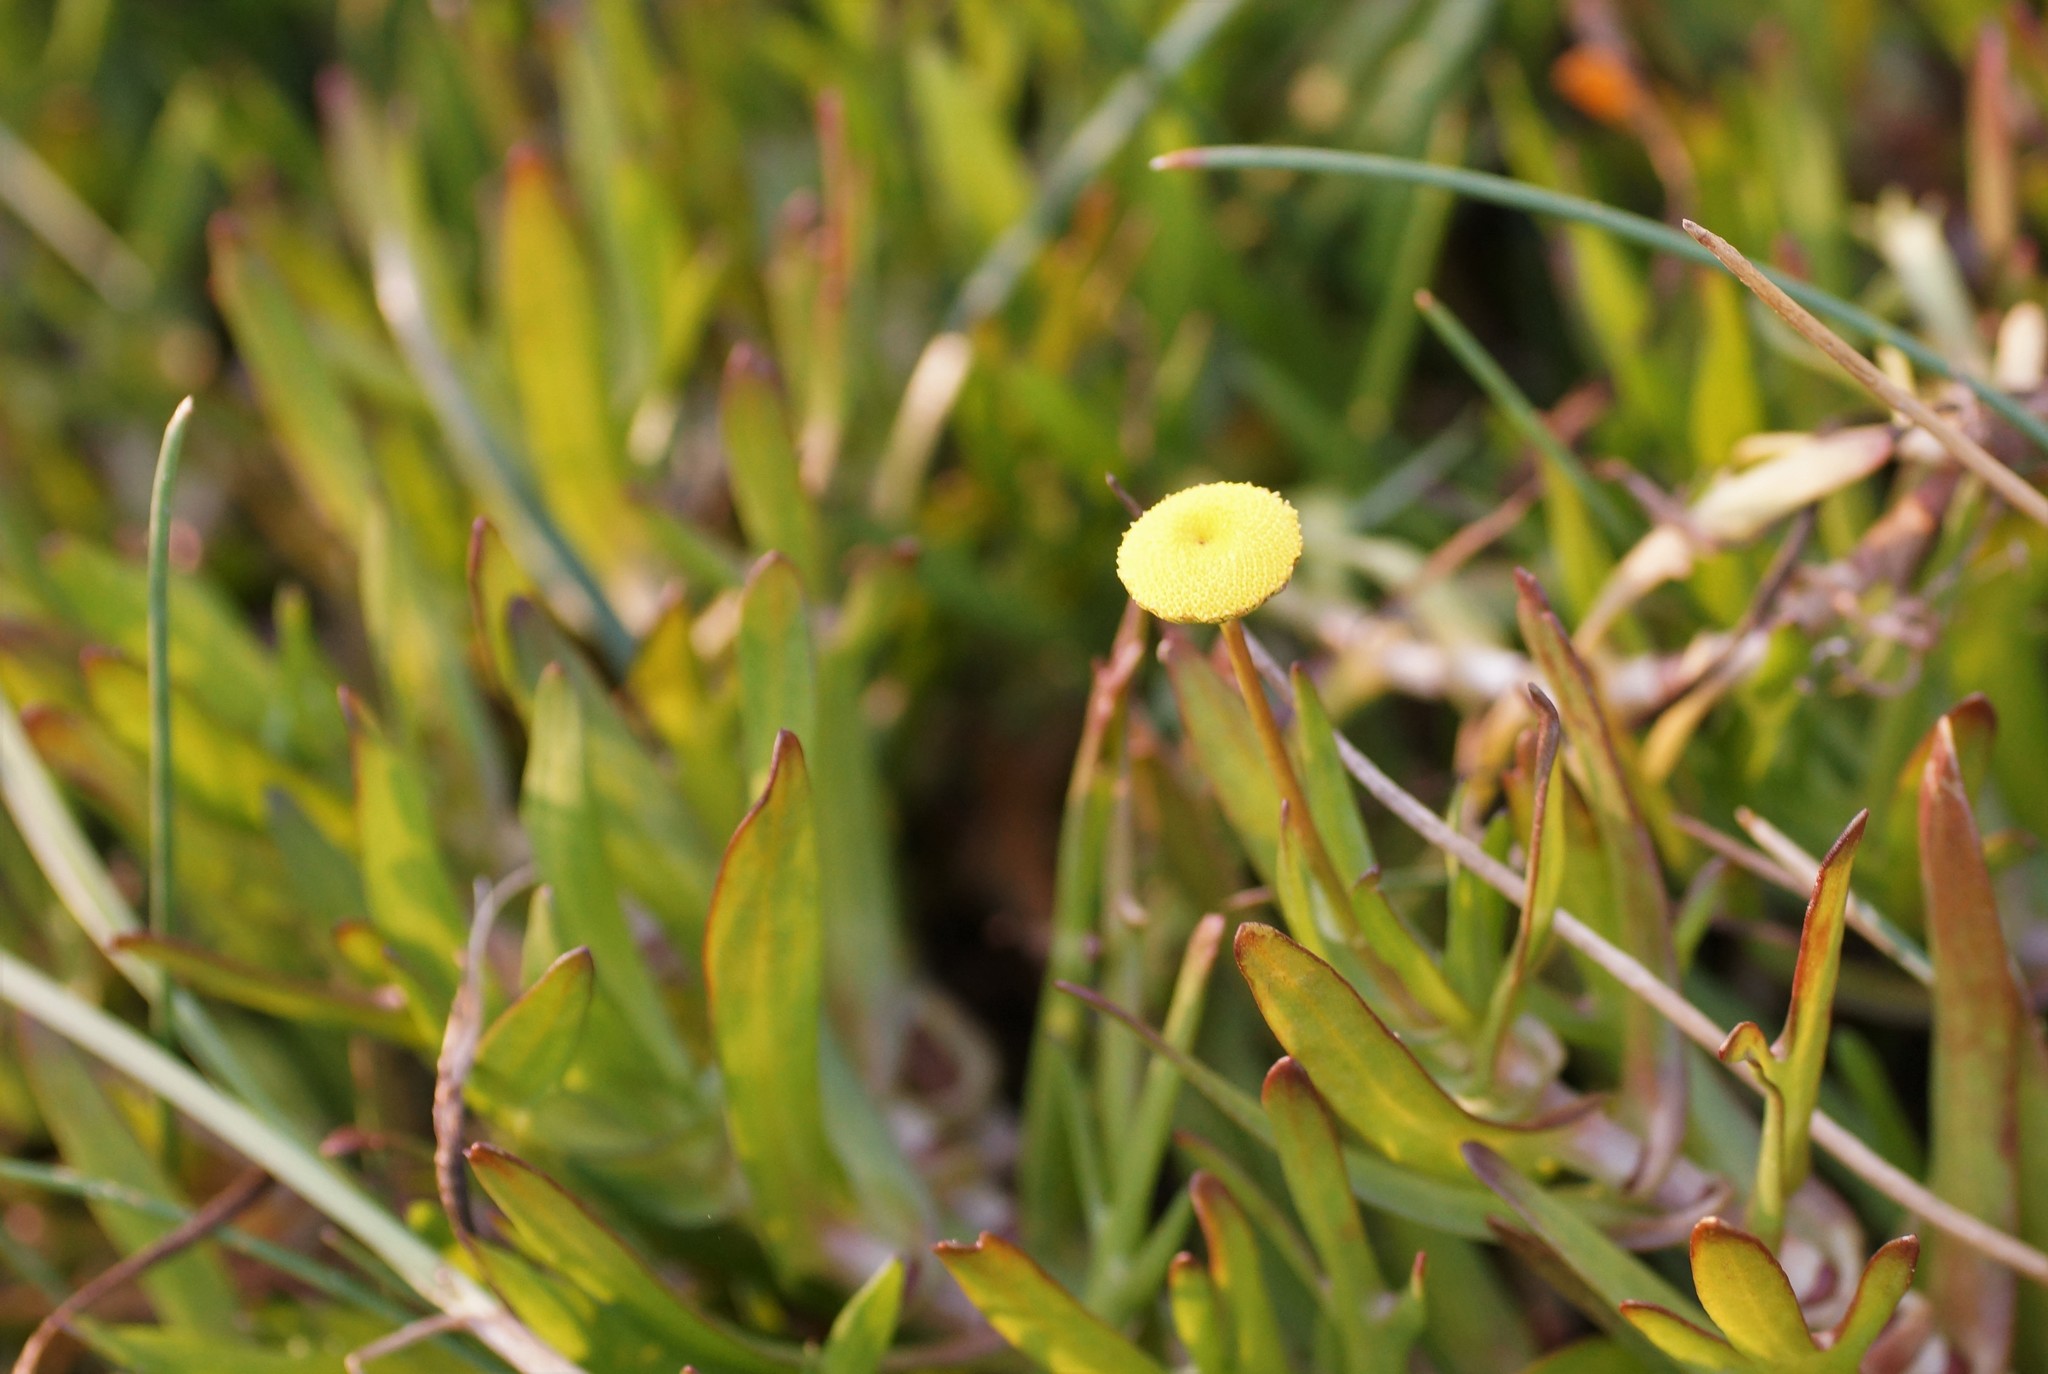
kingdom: Plantae
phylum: Tracheophyta
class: Magnoliopsida
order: Asterales
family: Asteraceae
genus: Cotula
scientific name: Cotula coronopifolia
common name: Buttonweed
